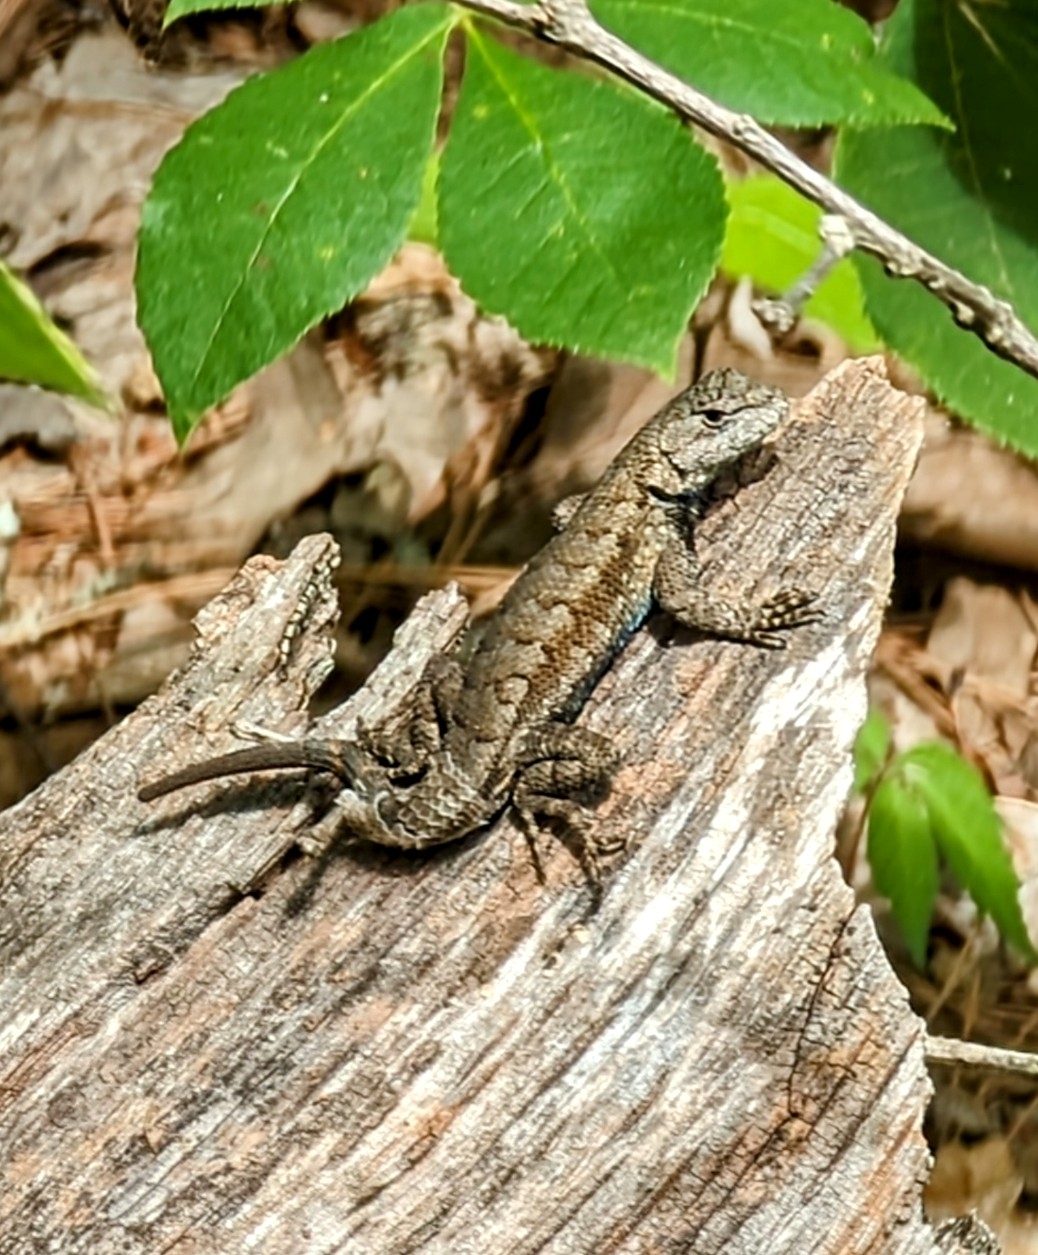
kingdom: Animalia
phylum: Chordata
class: Squamata
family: Phrynosomatidae
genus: Sceloporus
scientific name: Sceloporus consobrinus
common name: Southern prairie lizard
